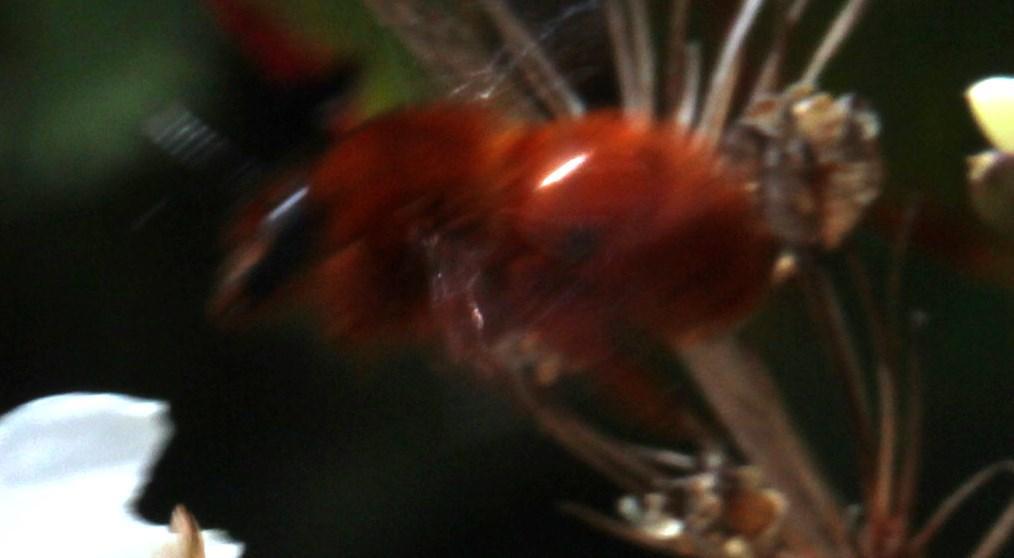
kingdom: Animalia
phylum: Arthropoda
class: Insecta
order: Hymenoptera
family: Colletidae
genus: Diphaglossa
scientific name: Diphaglossa gayi
